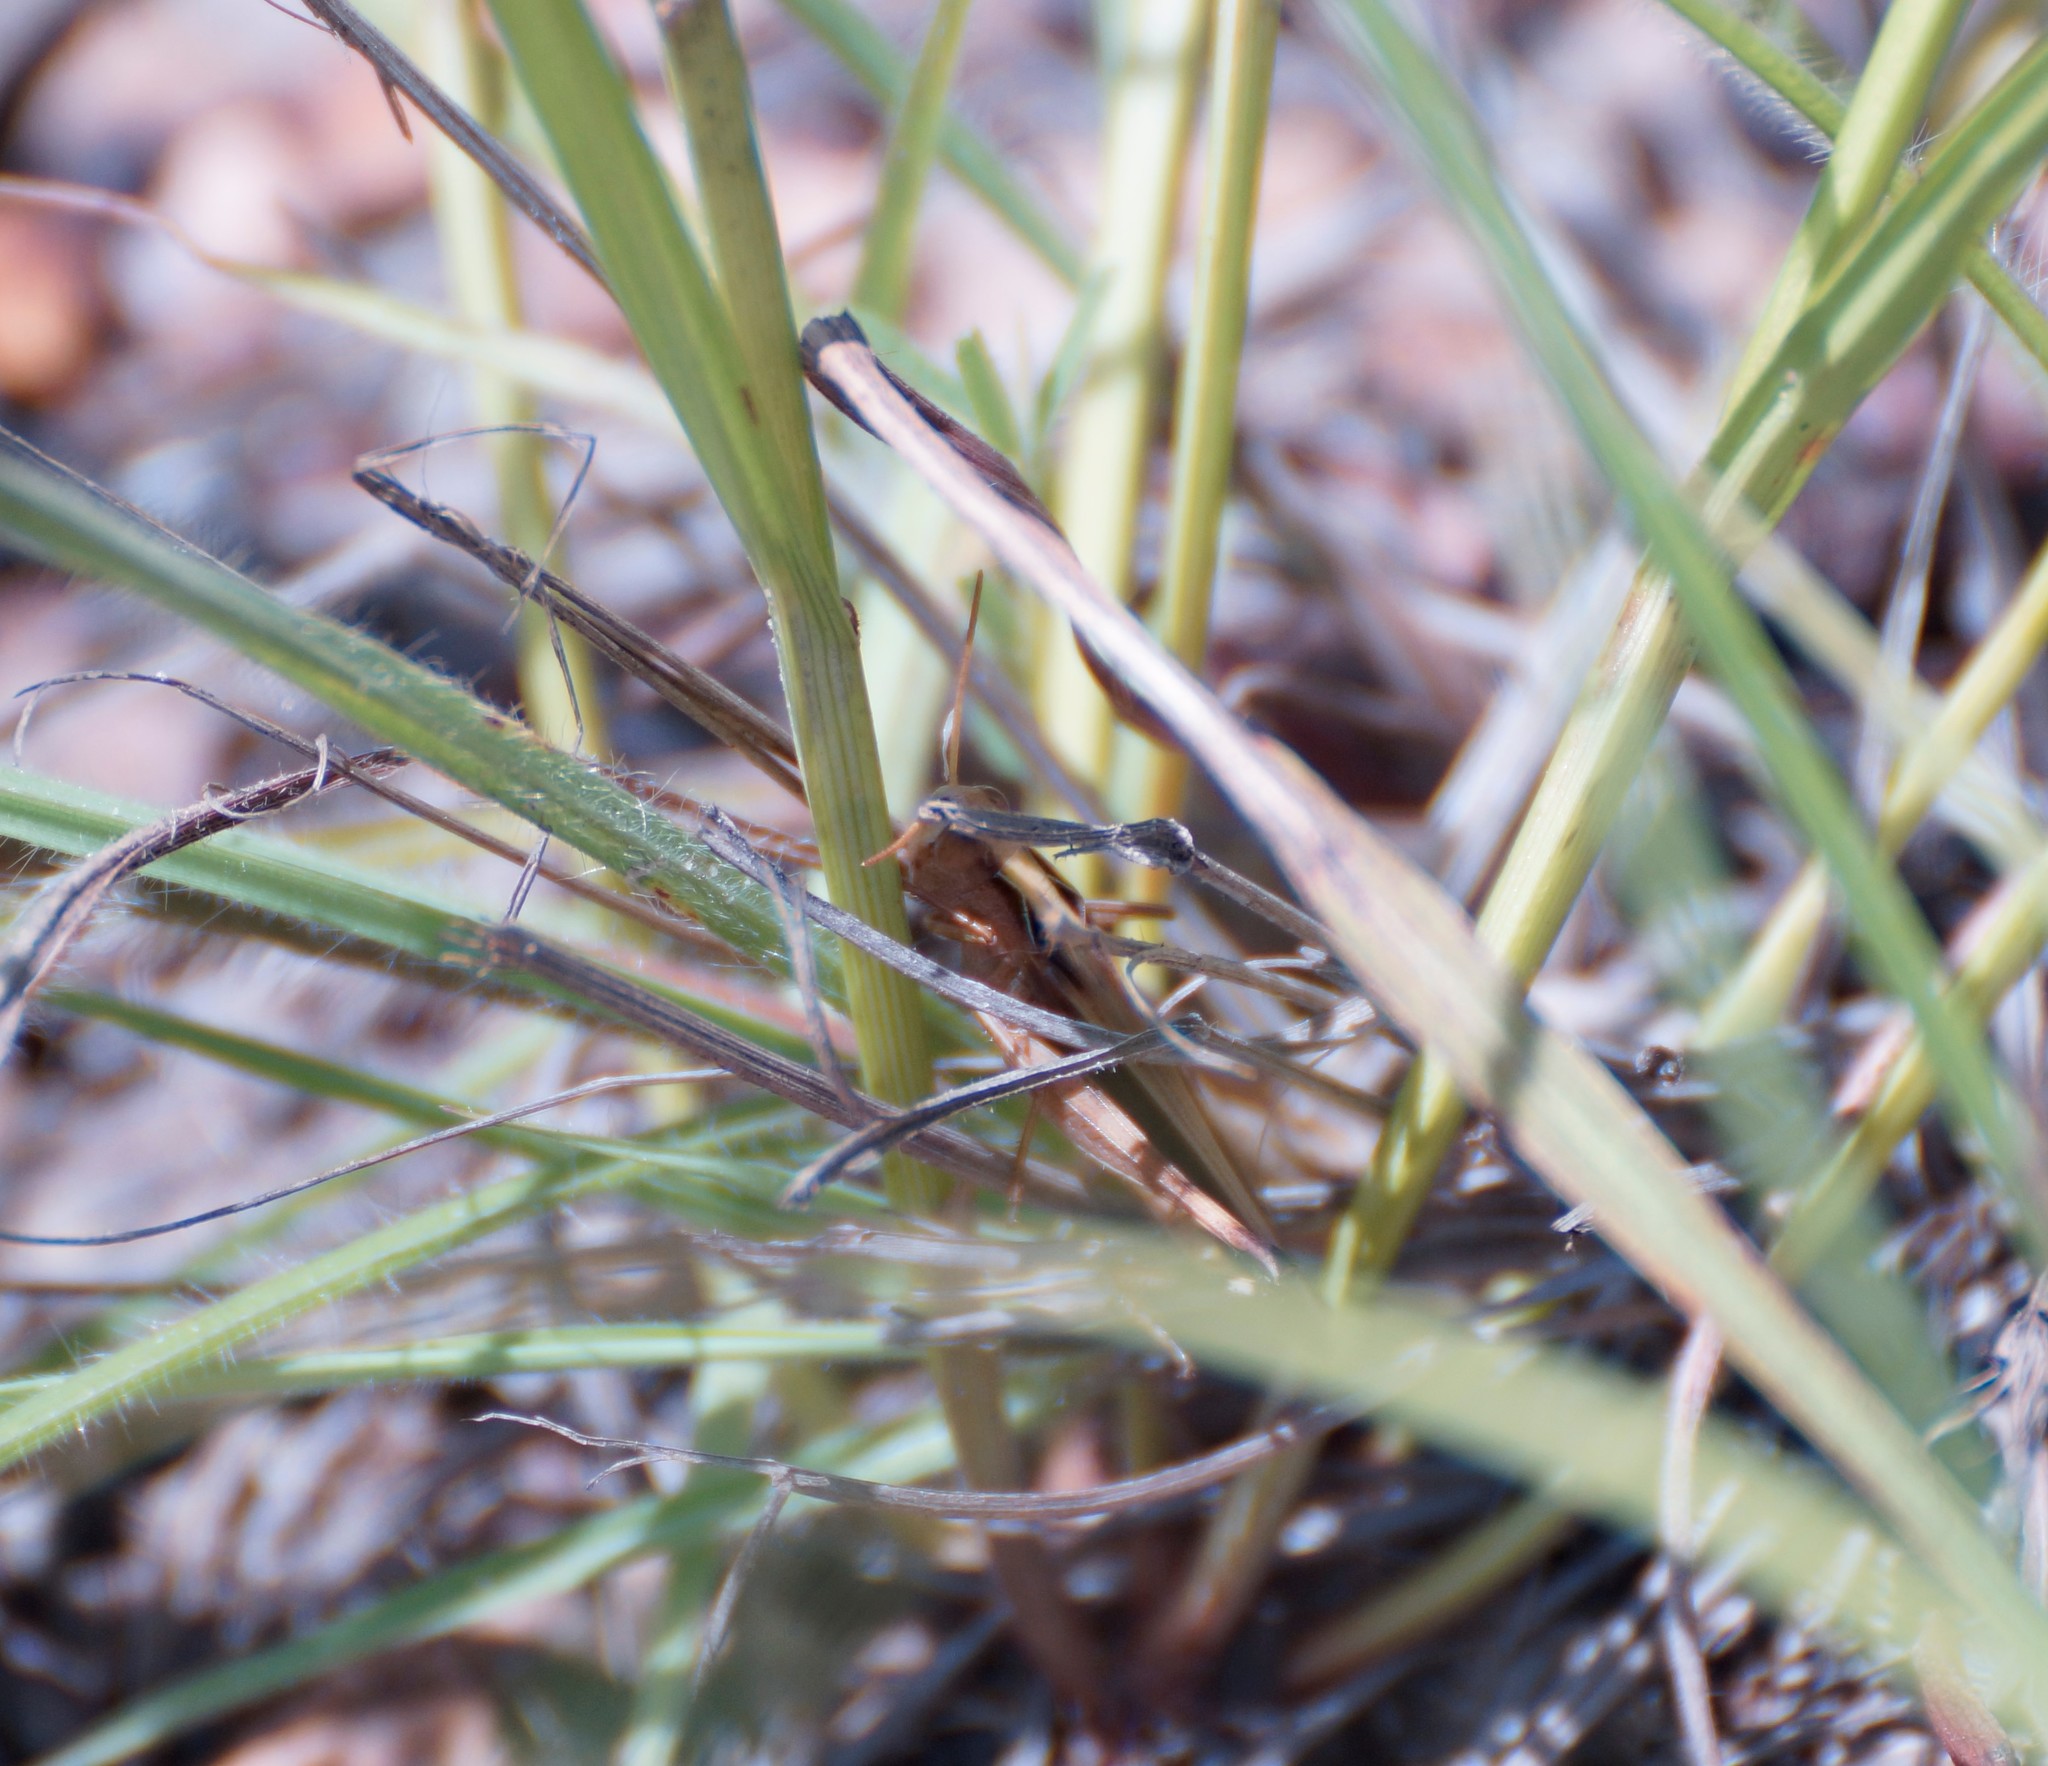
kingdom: Animalia
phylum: Arthropoda
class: Insecta
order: Orthoptera
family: Acrididae
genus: Aiolopus
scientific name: Aiolopus thalassinus
